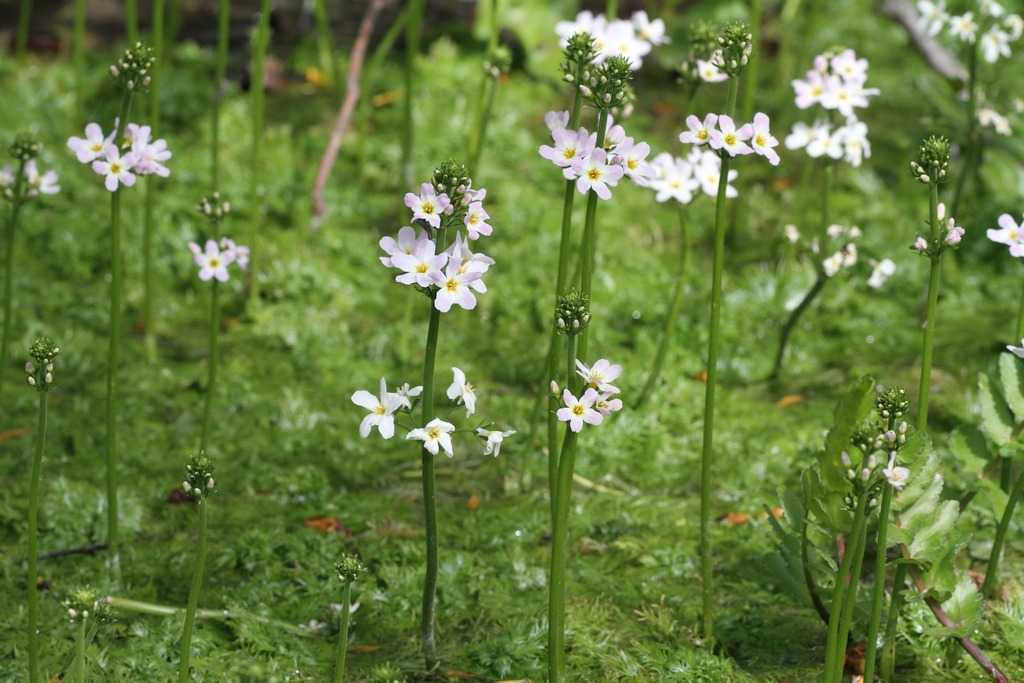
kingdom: Plantae
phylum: Tracheophyta
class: Magnoliopsida
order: Ericales
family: Primulaceae
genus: Hottonia
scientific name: Hottonia palustris
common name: Water-violet
